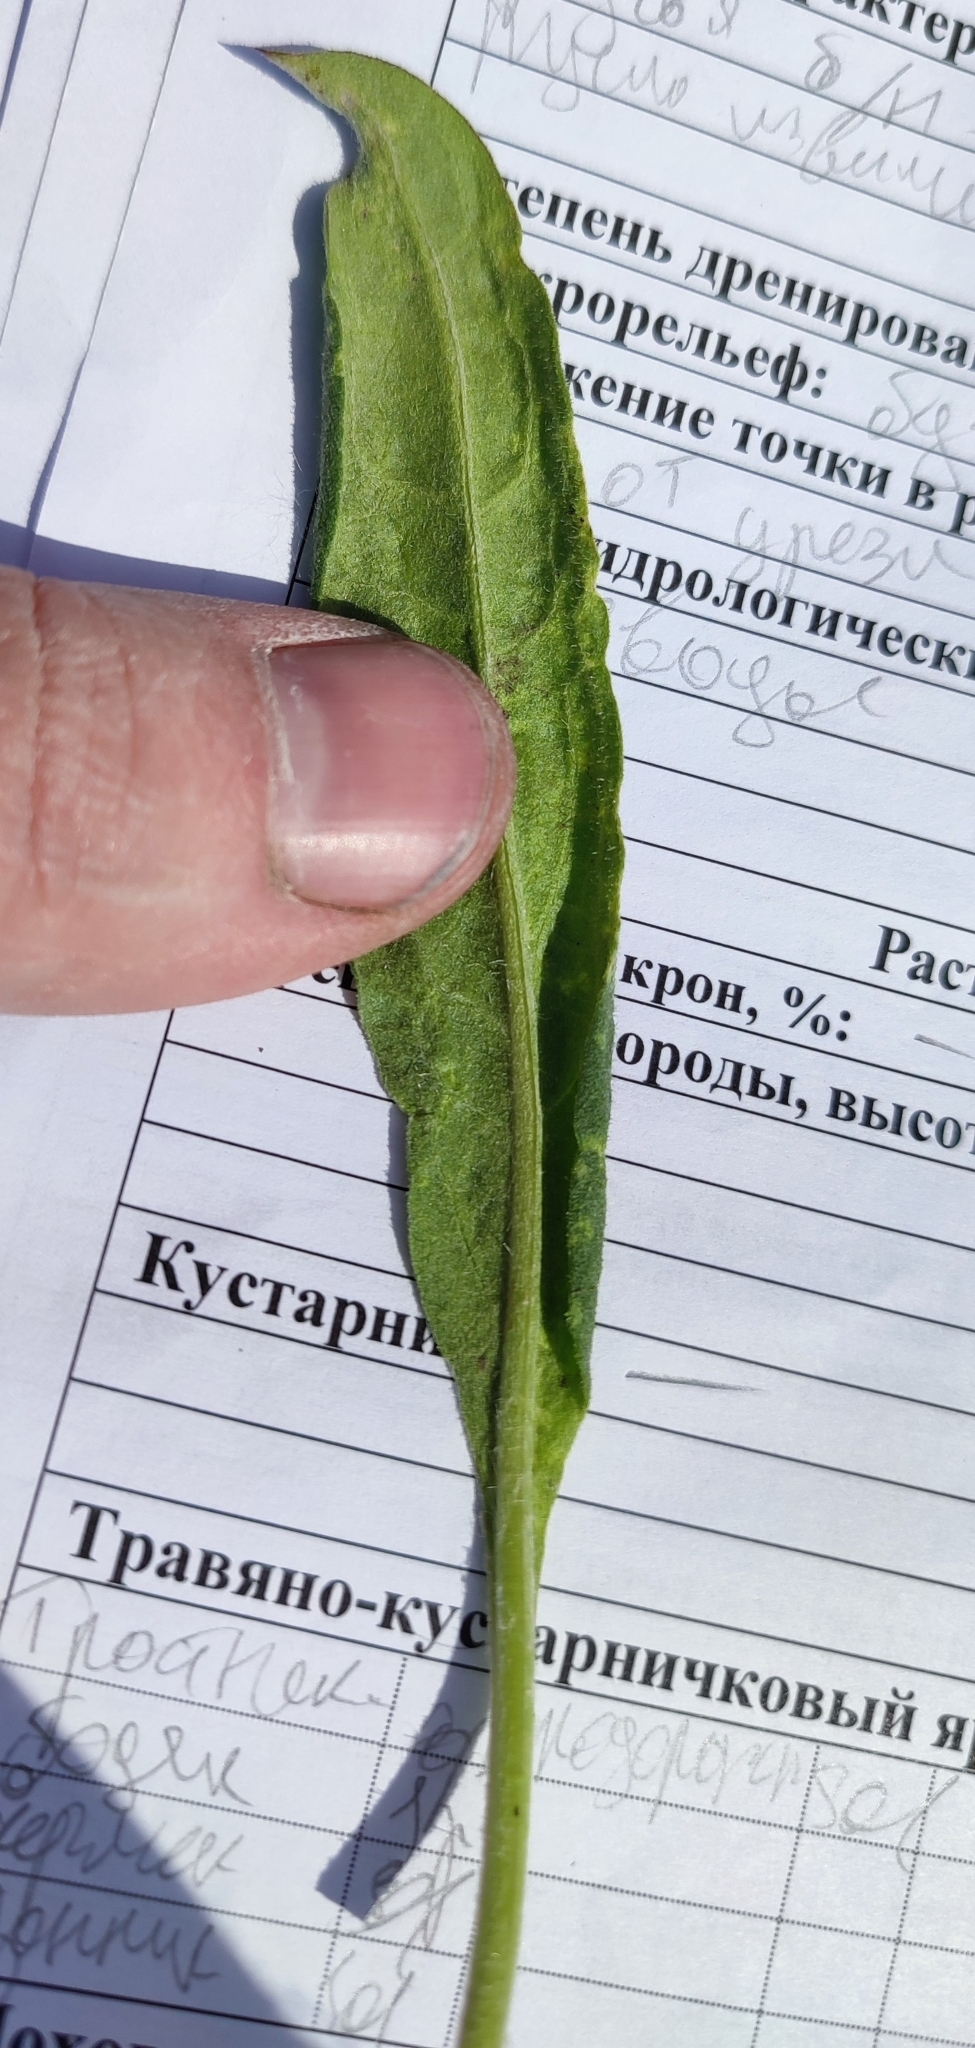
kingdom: Plantae
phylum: Tracheophyta
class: Magnoliopsida
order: Asterales
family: Asteraceae
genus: Saussurea
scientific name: Saussurea amara
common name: Alberta sawwort
